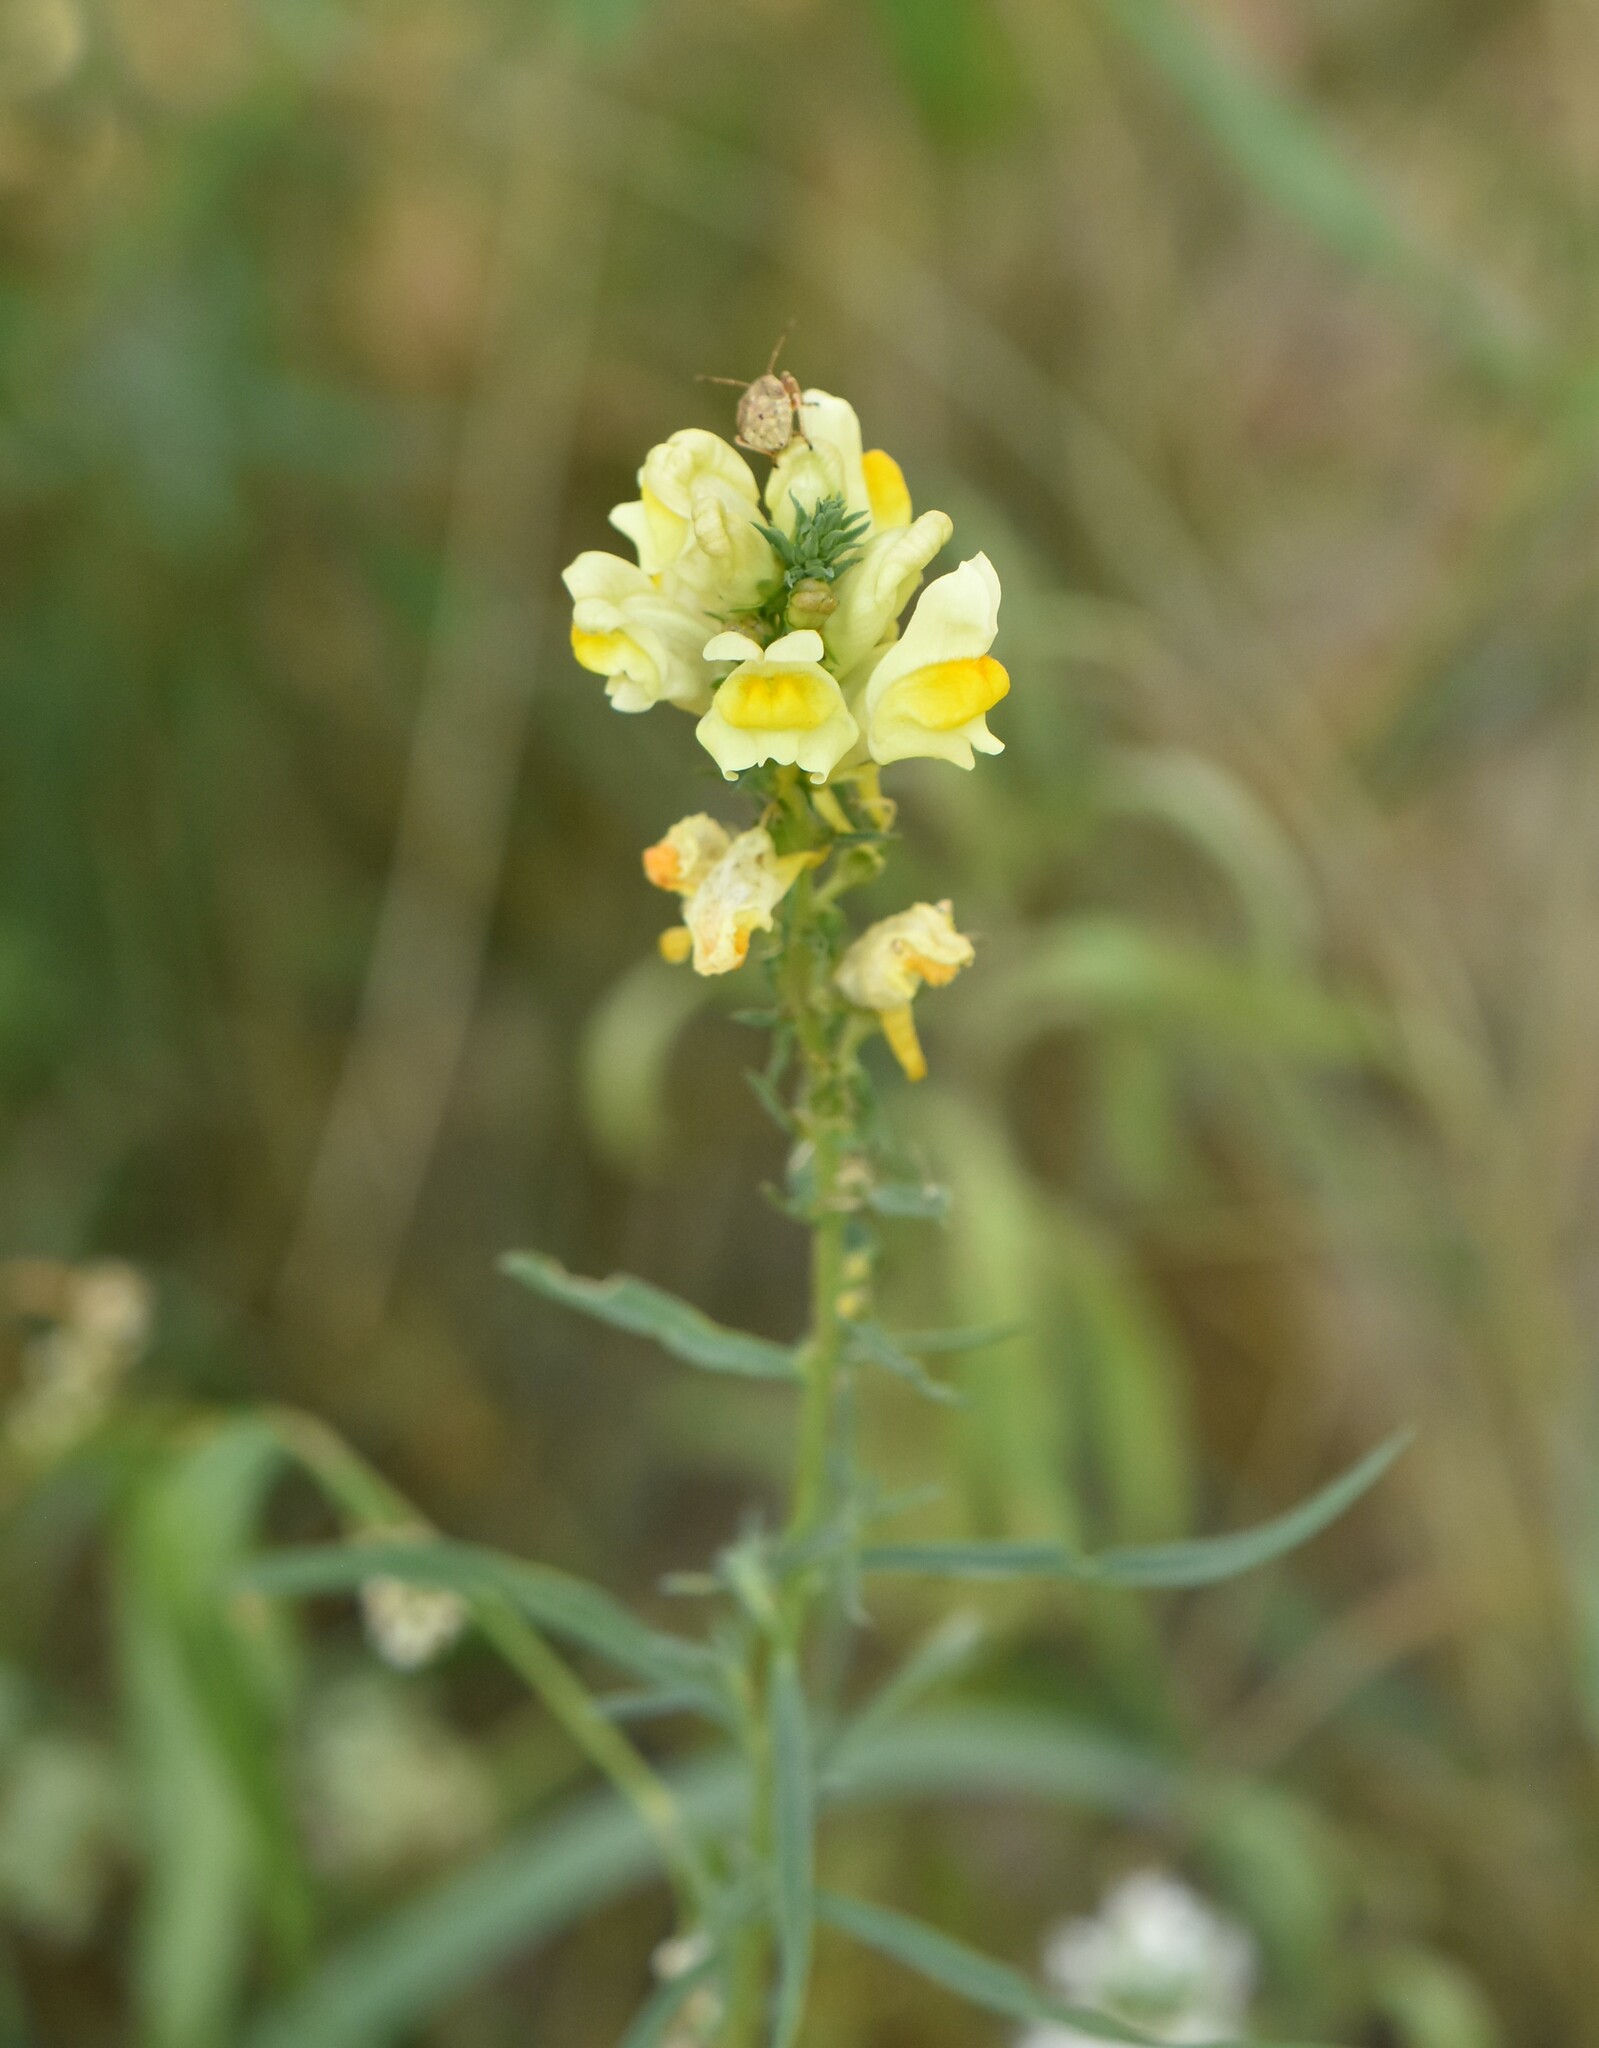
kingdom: Plantae
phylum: Tracheophyta
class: Magnoliopsida
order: Lamiales
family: Plantaginaceae
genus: Linaria
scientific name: Linaria vulgaris
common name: Butter and eggs
